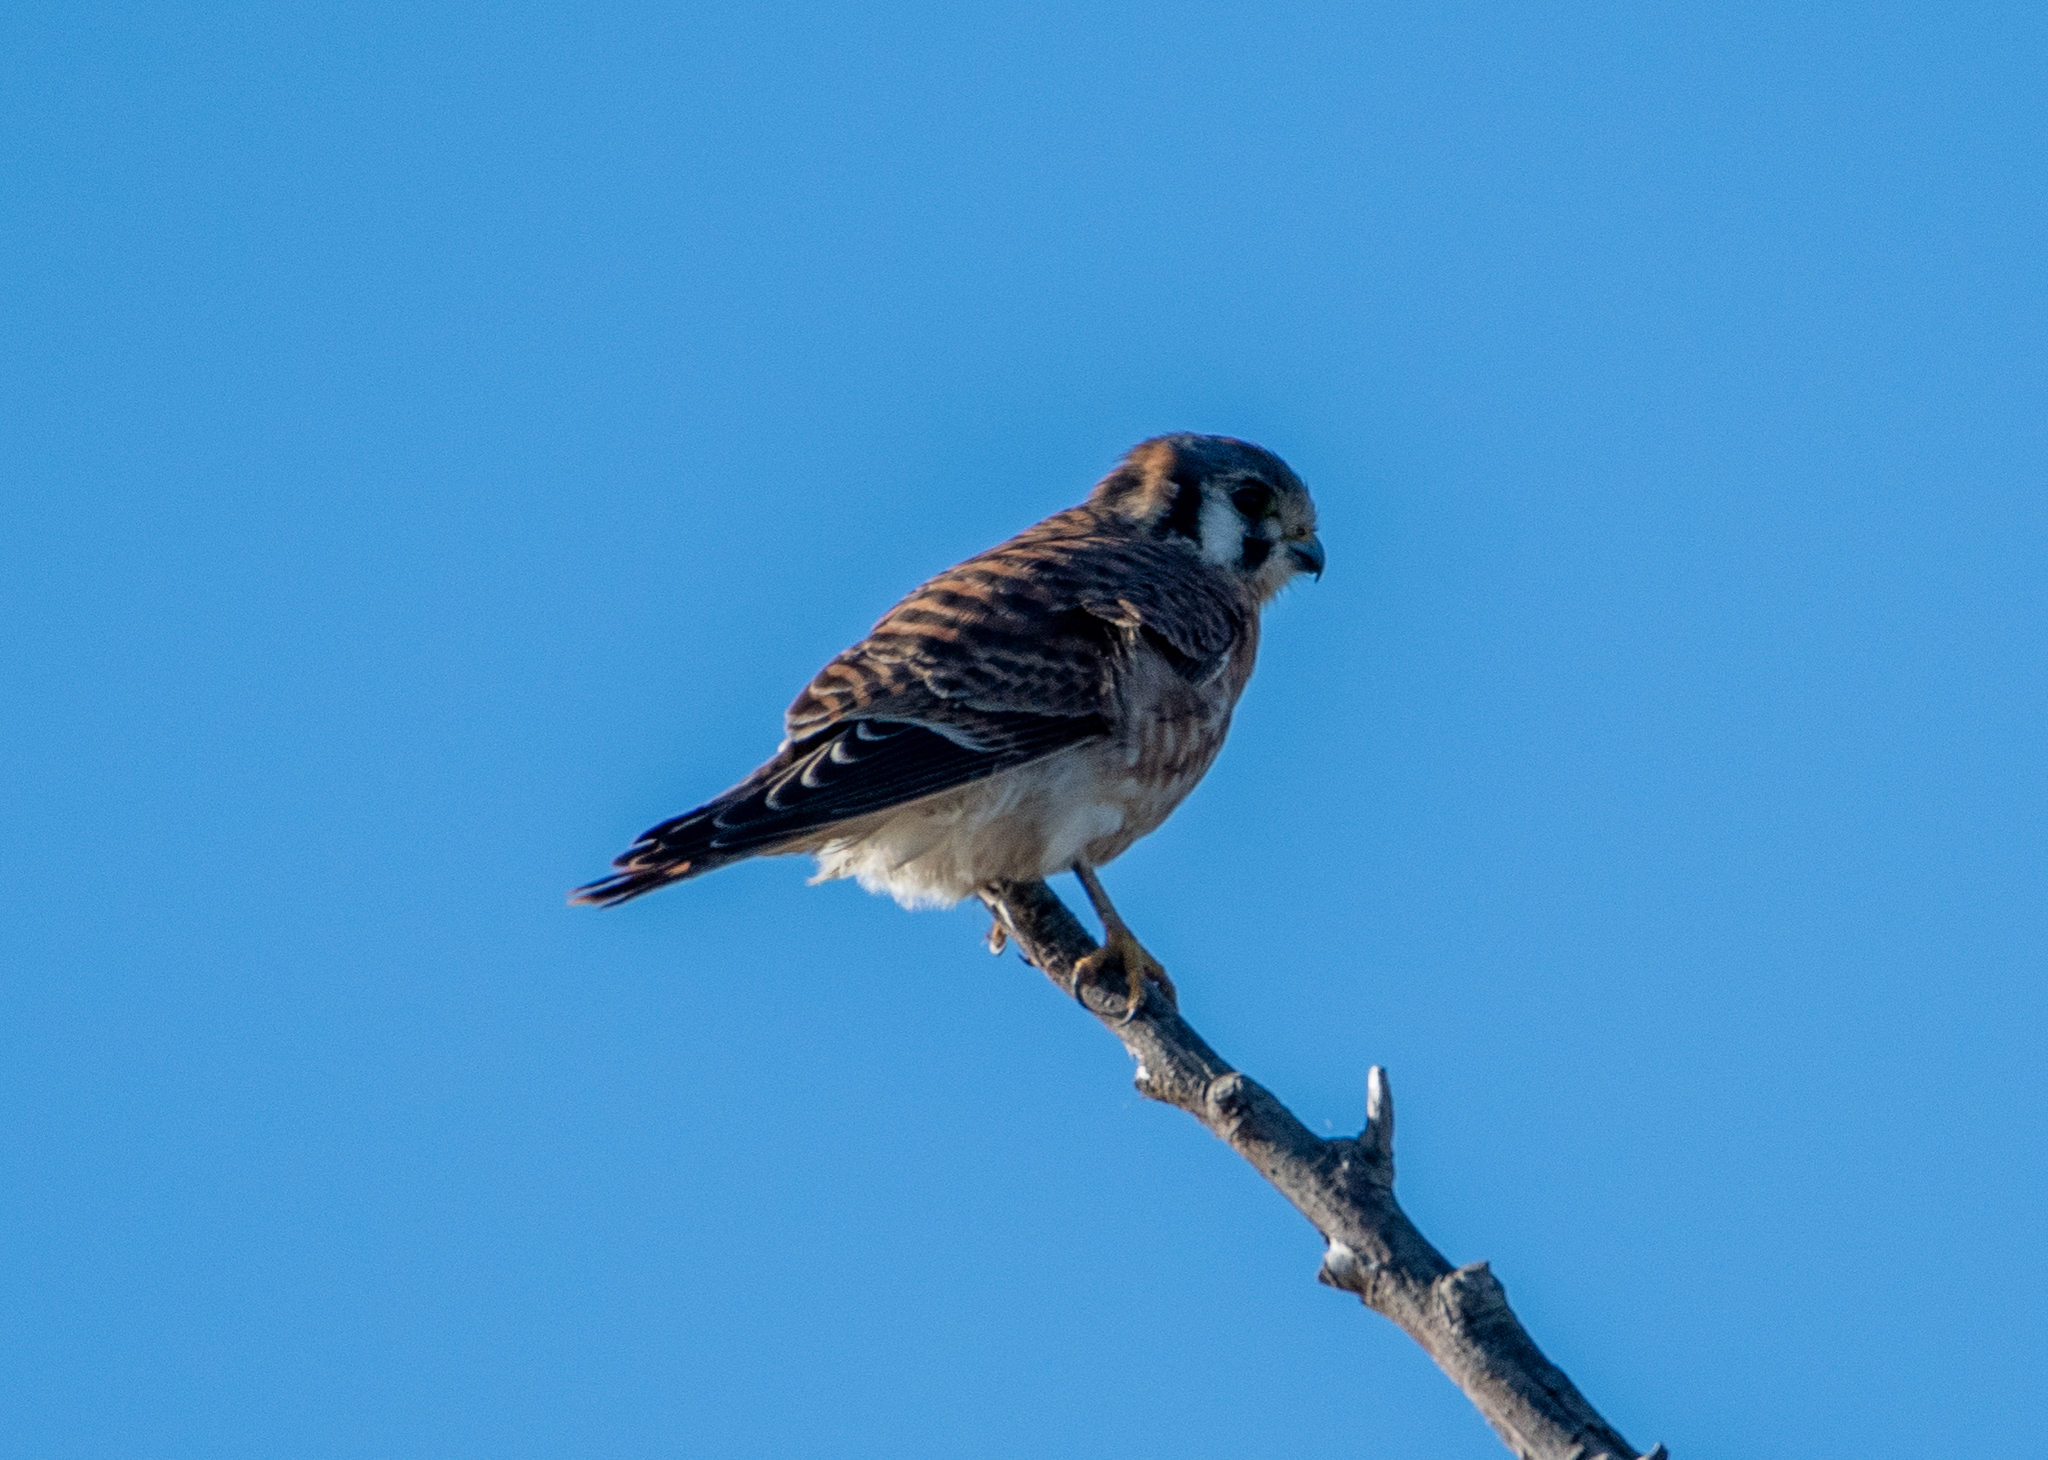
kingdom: Animalia
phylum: Chordata
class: Aves
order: Falconiformes
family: Falconidae
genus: Falco
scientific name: Falco sparverius
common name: American kestrel
